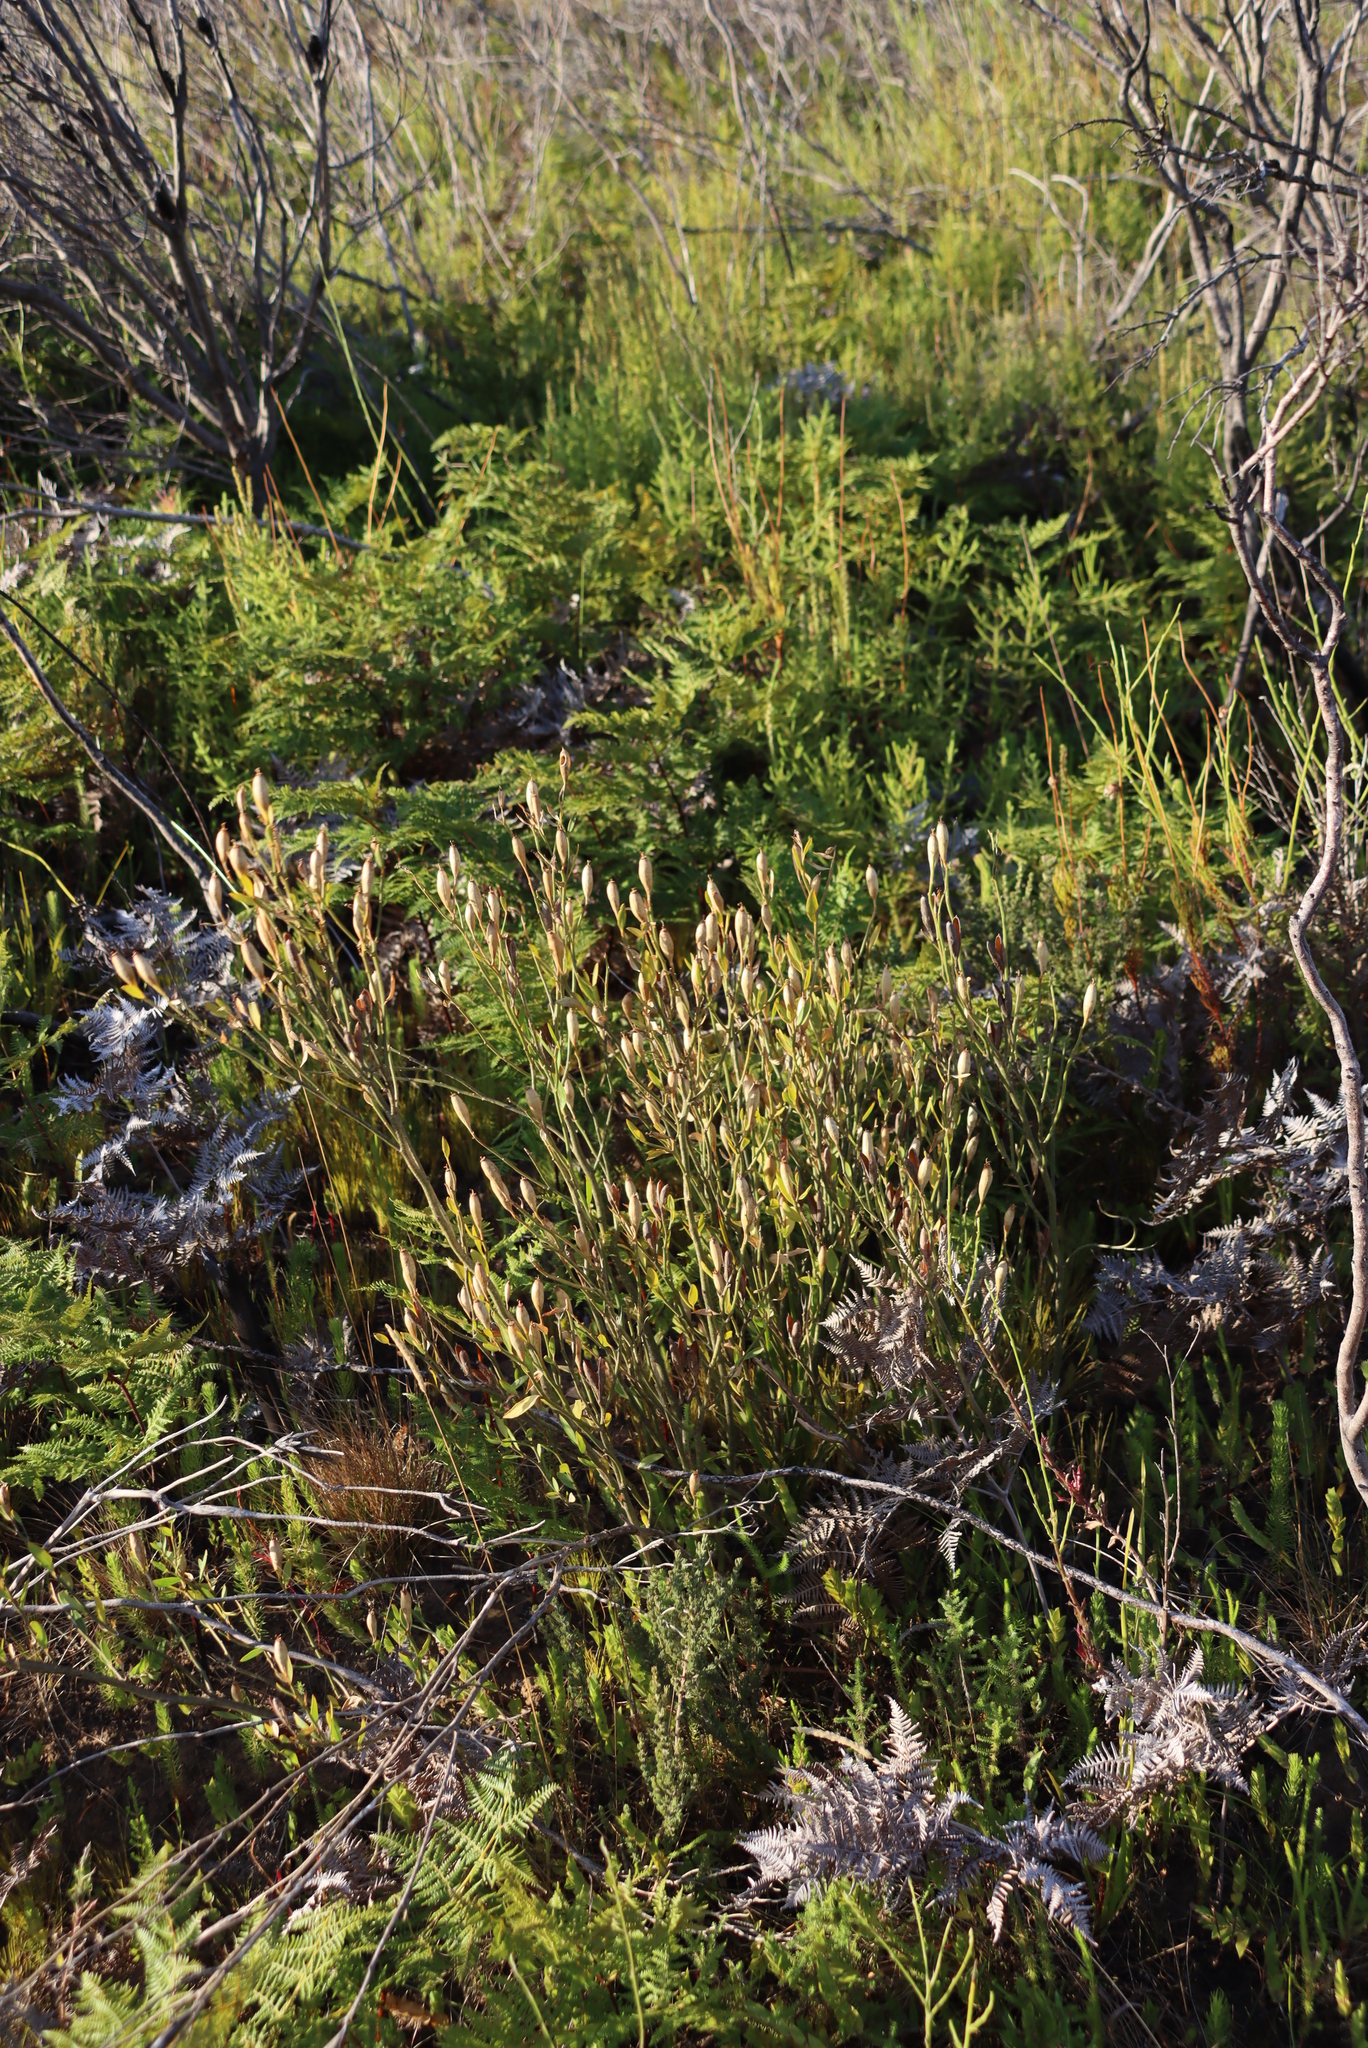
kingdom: Plantae
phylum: Tracheophyta
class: Magnoliopsida
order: Solanales
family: Montiniaceae
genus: Montinia
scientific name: Montinia caryophyllacea
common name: Wild clove-bush
